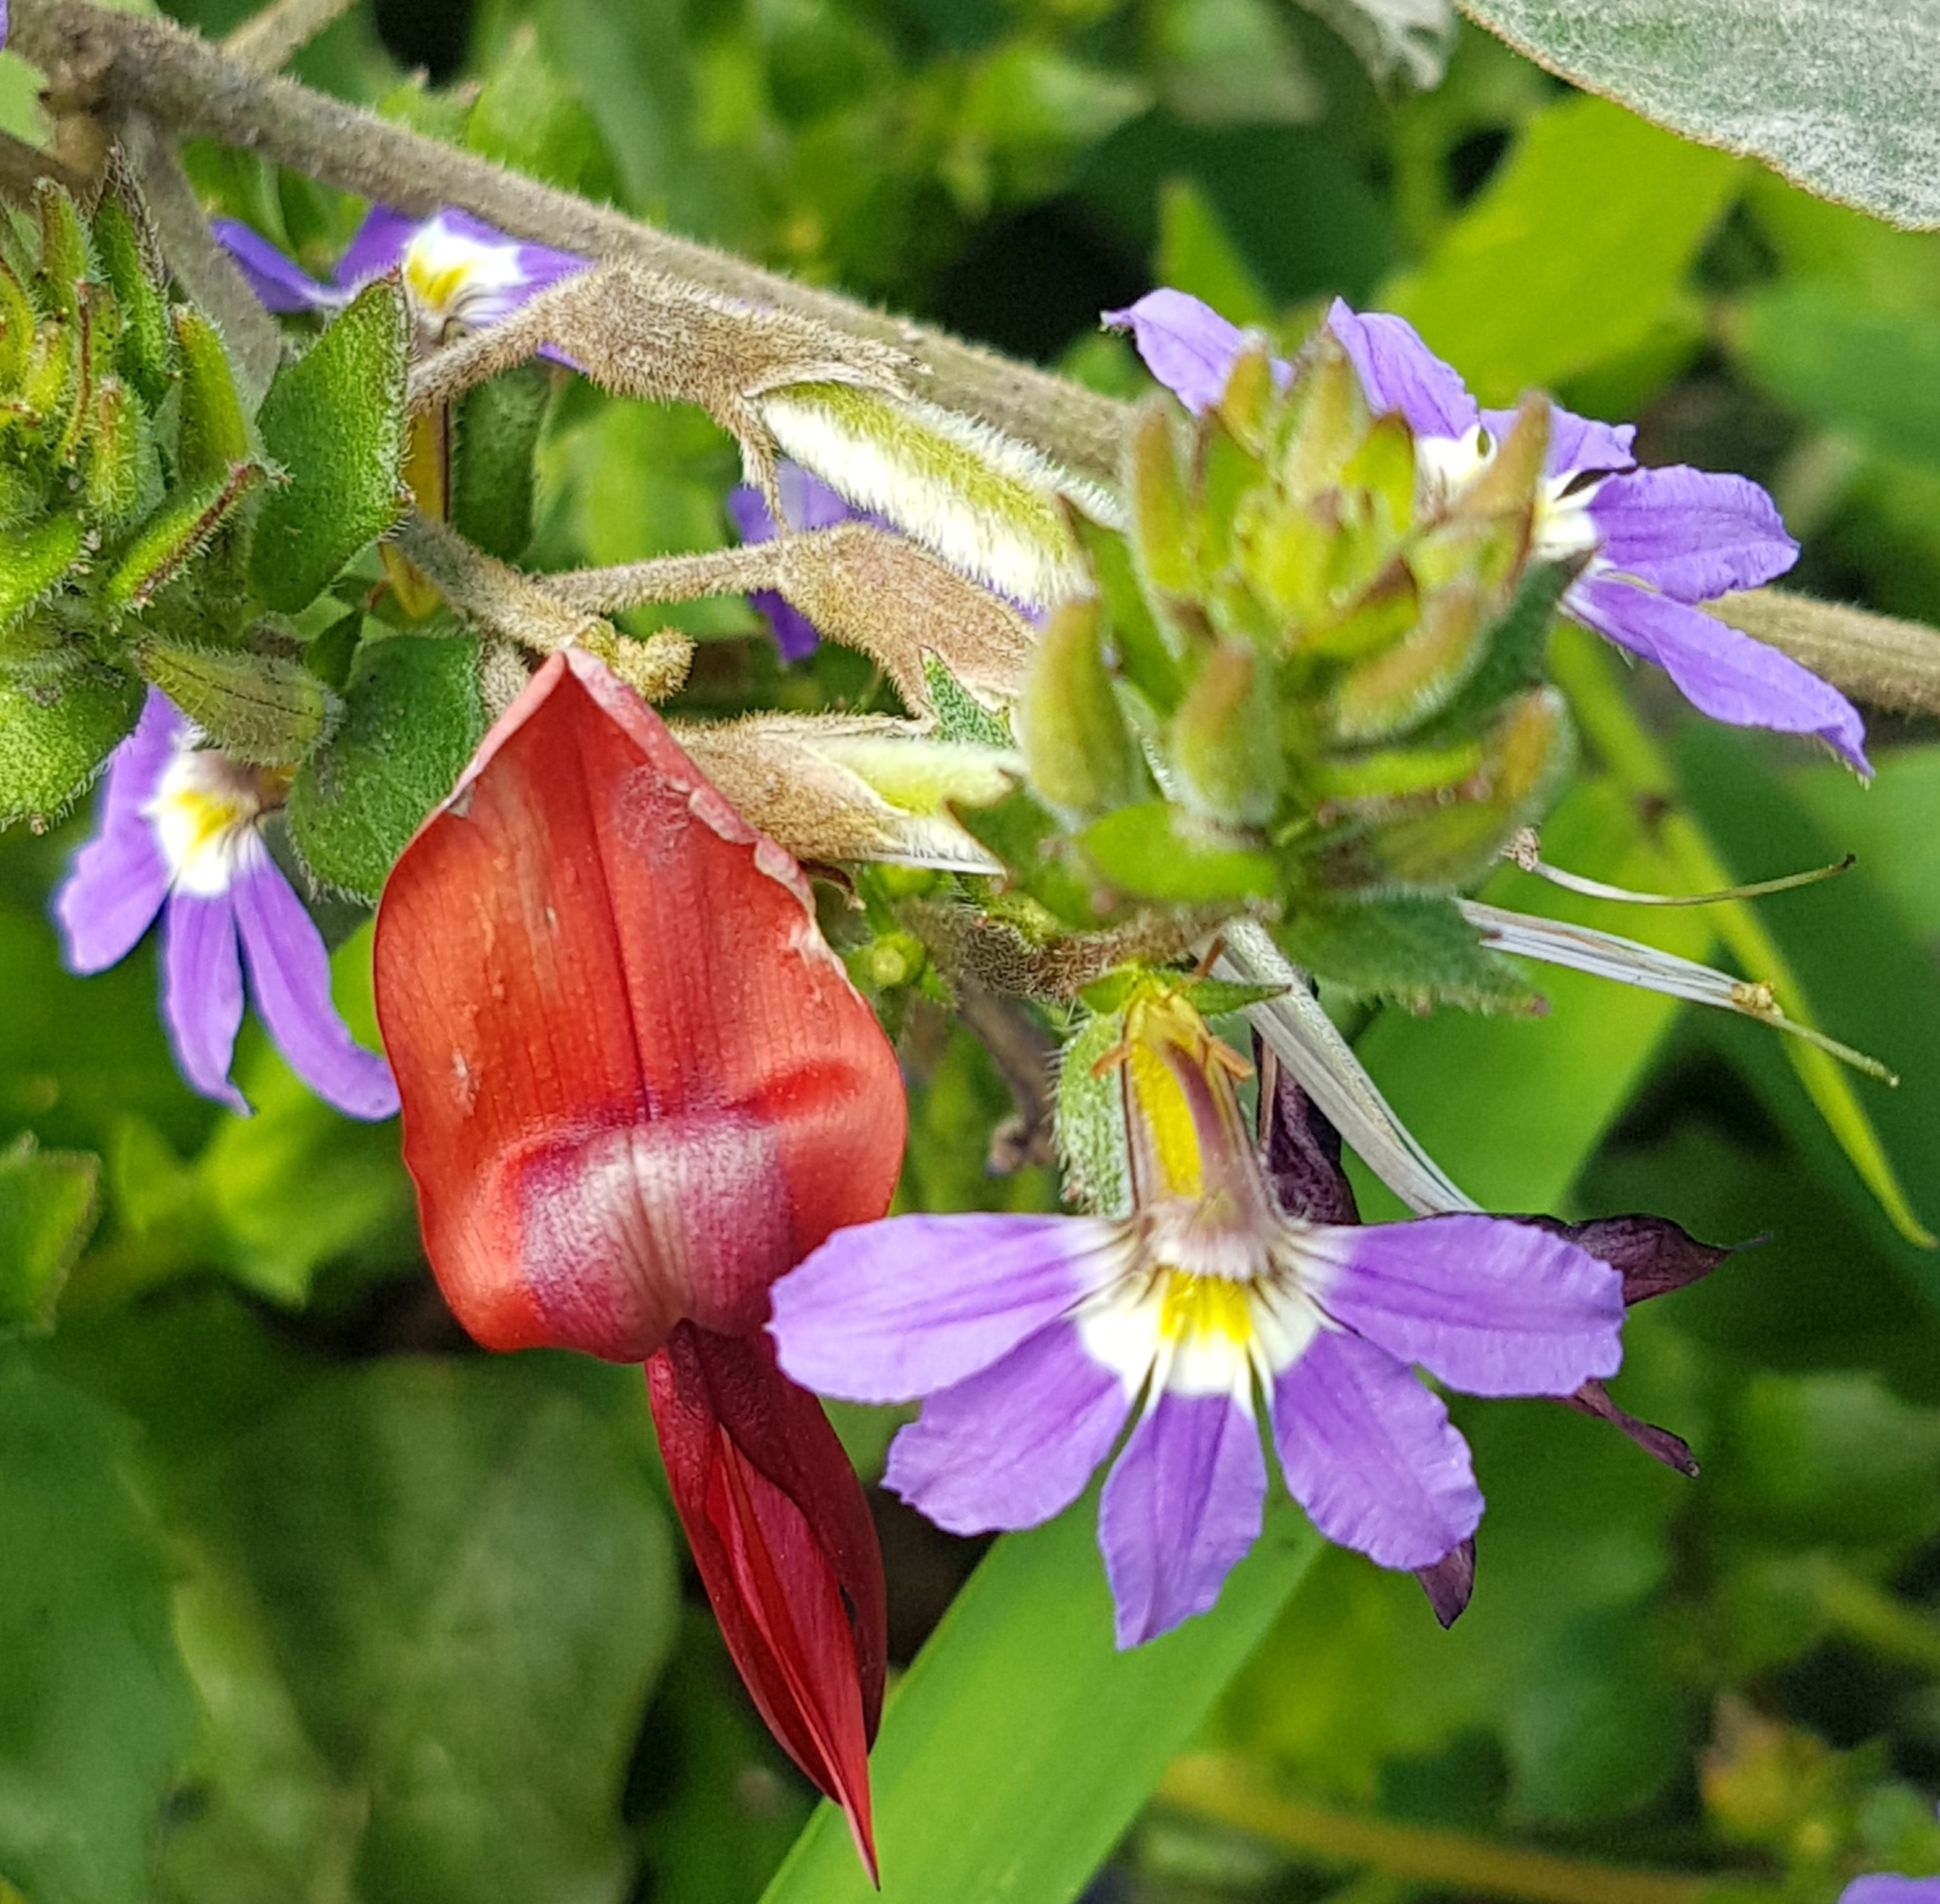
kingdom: Plantae
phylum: Tracheophyta
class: Magnoliopsida
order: Fabales
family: Fabaceae
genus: Kennedia
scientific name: Kennedia rubicunda
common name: Red kennedy-pea
